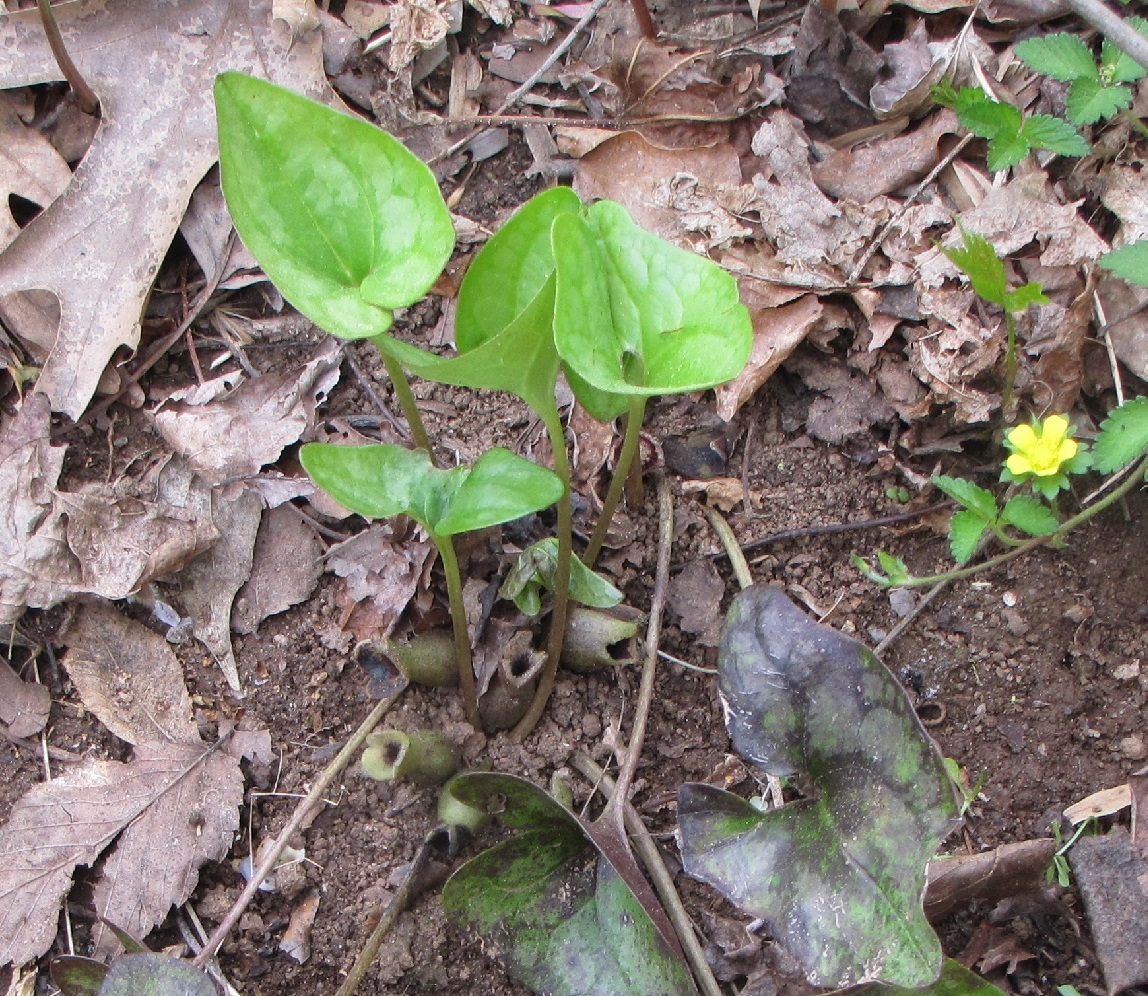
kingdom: Plantae
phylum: Tracheophyta
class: Magnoliopsida
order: Piperales
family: Aristolochiaceae
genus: Hexastylis
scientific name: Hexastylis arifolia
